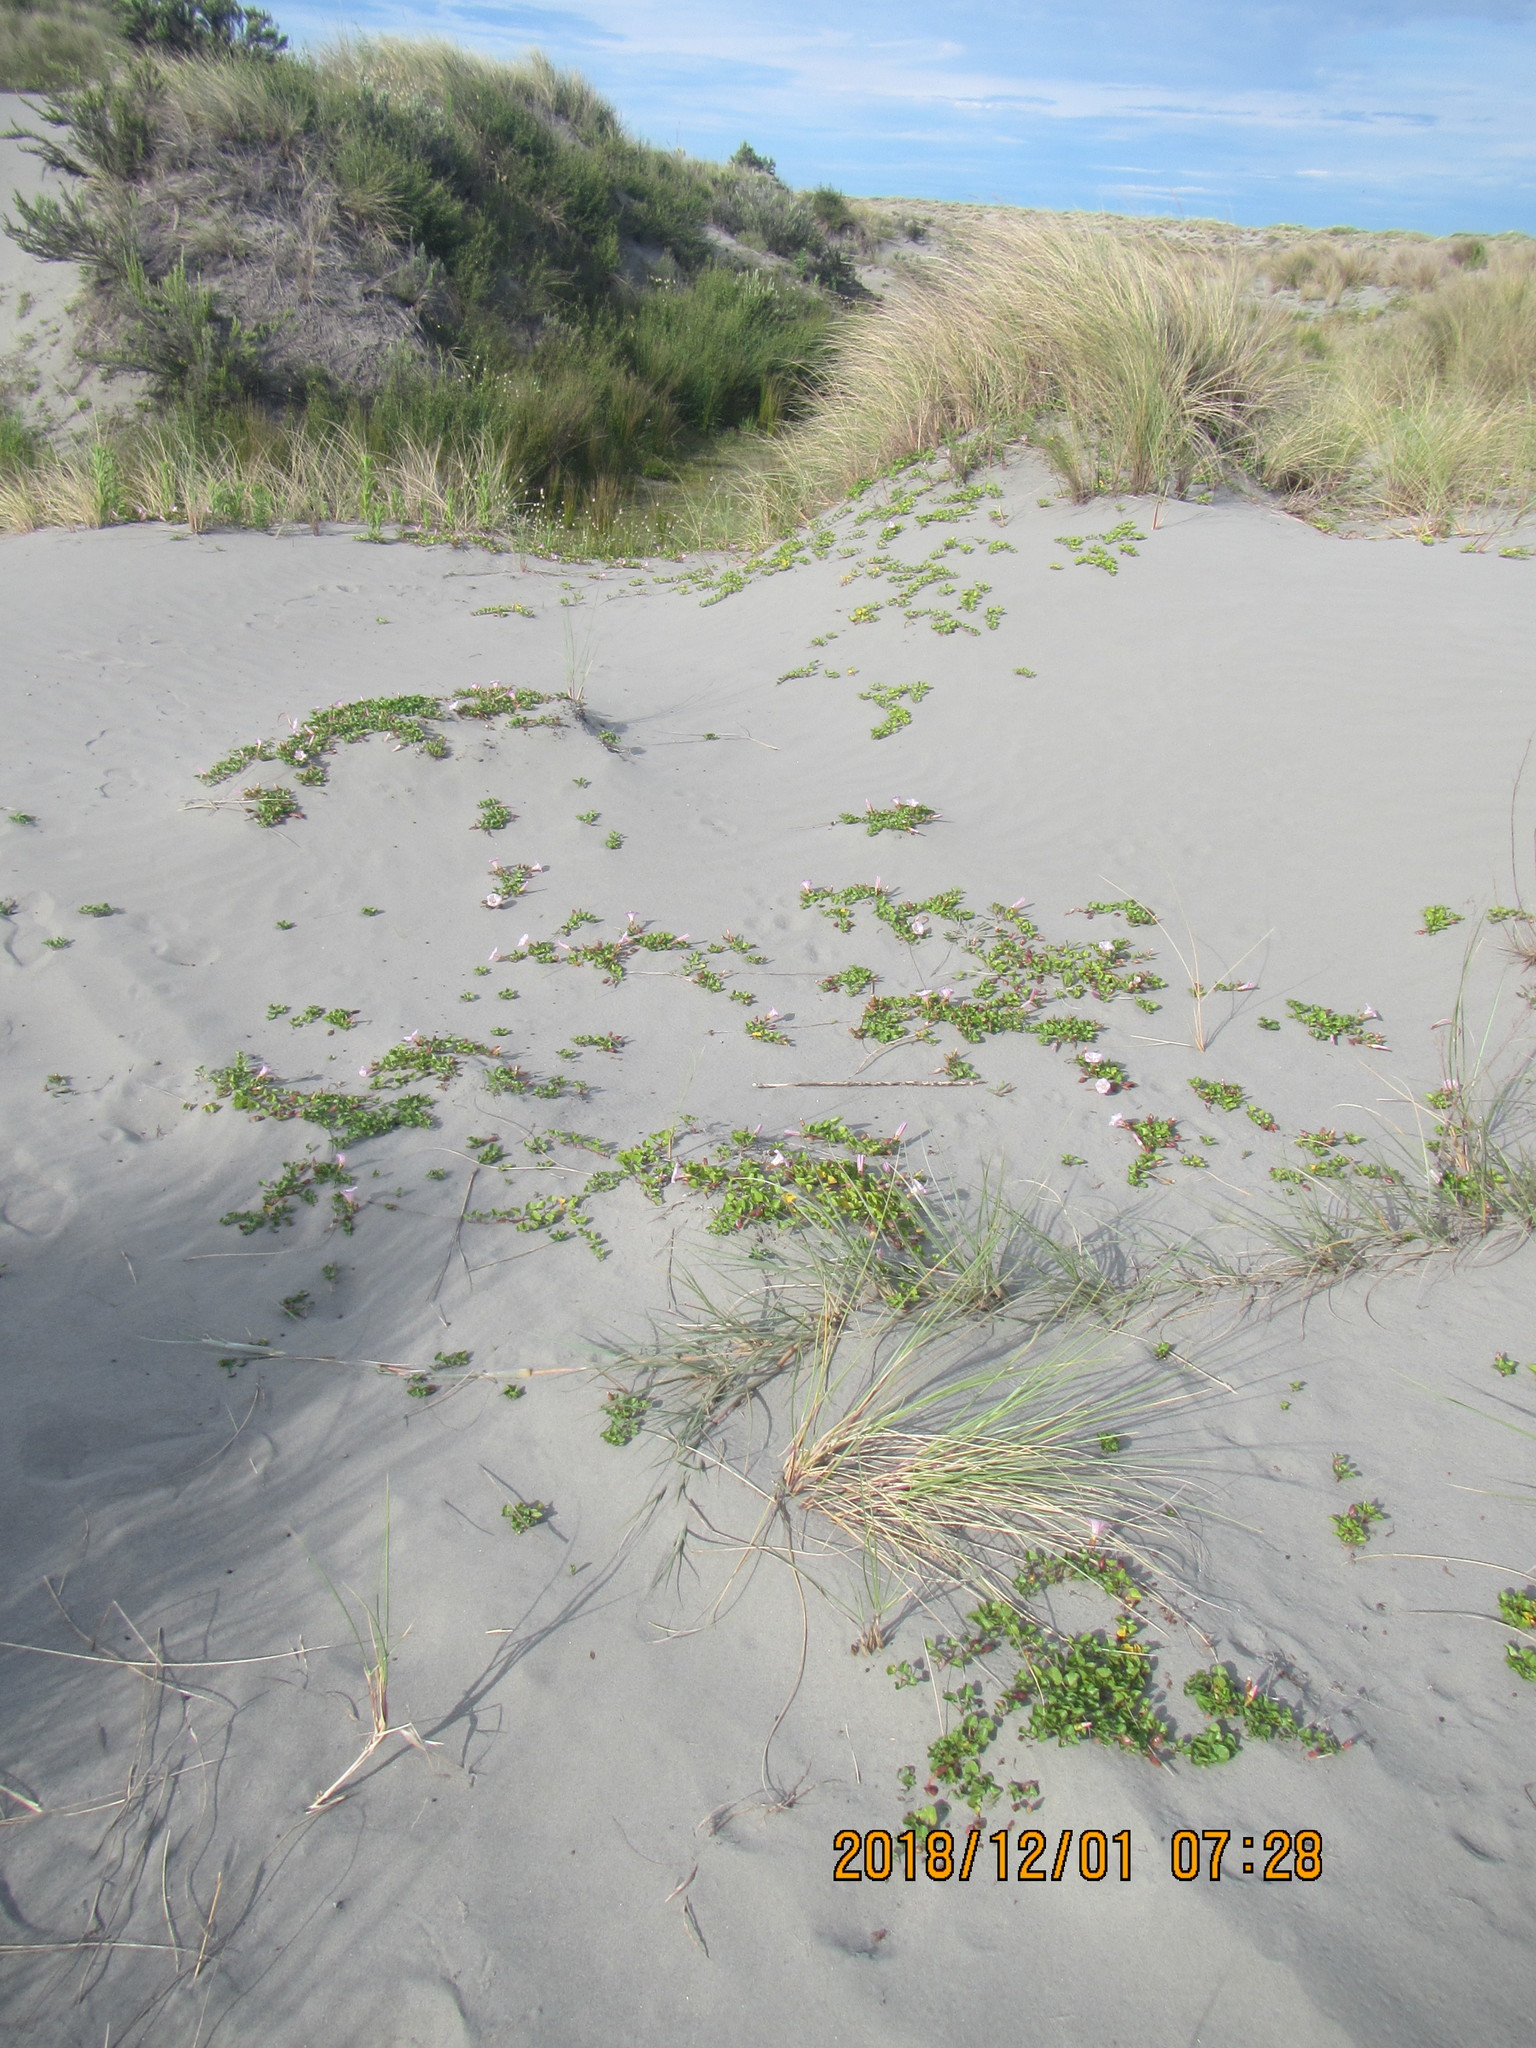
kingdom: Plantae
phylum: Tracheophyta
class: Magnoliopsida
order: Solanales
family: Convolvulaceae
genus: Calystegia
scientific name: Calystegia soldanella
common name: Sea bindweed
